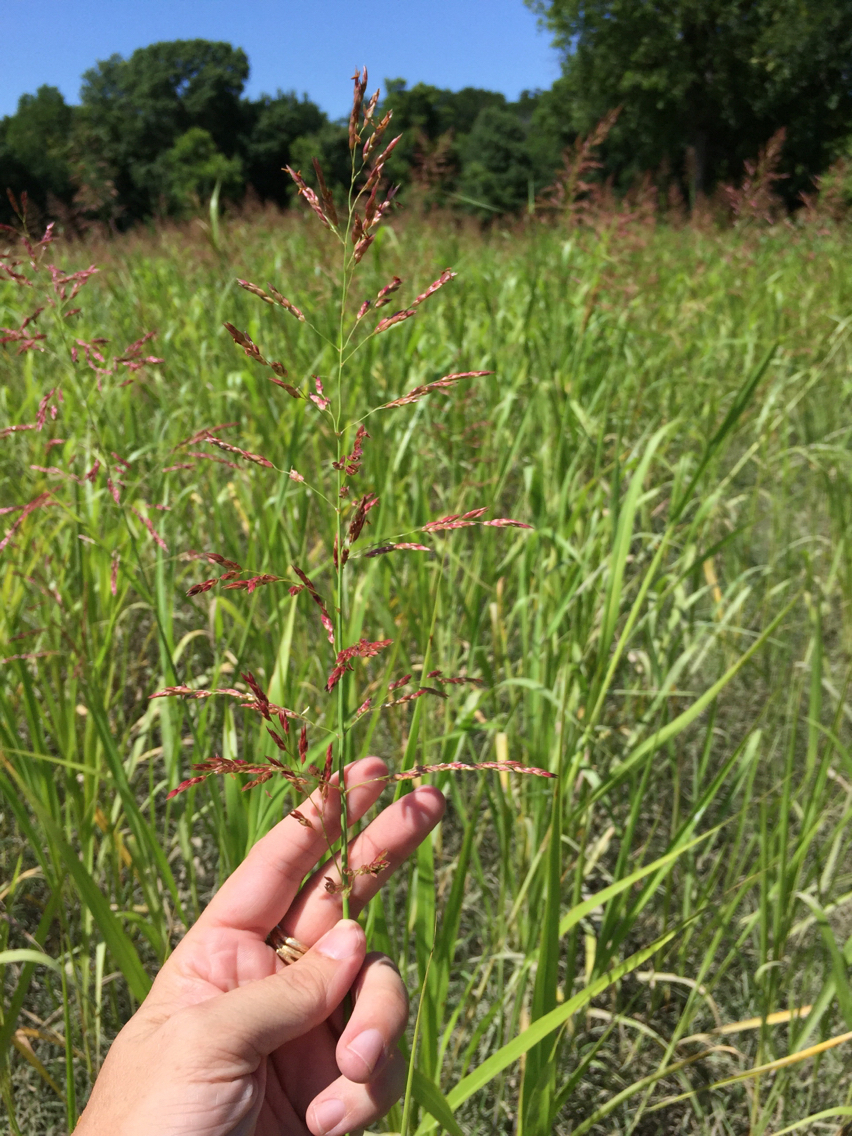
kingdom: Plantae
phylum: Tracheophyta
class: Liliopsida
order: Poales
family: Poaceae
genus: Sorghum
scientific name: Sorghum halepense
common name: Johnson-grass
